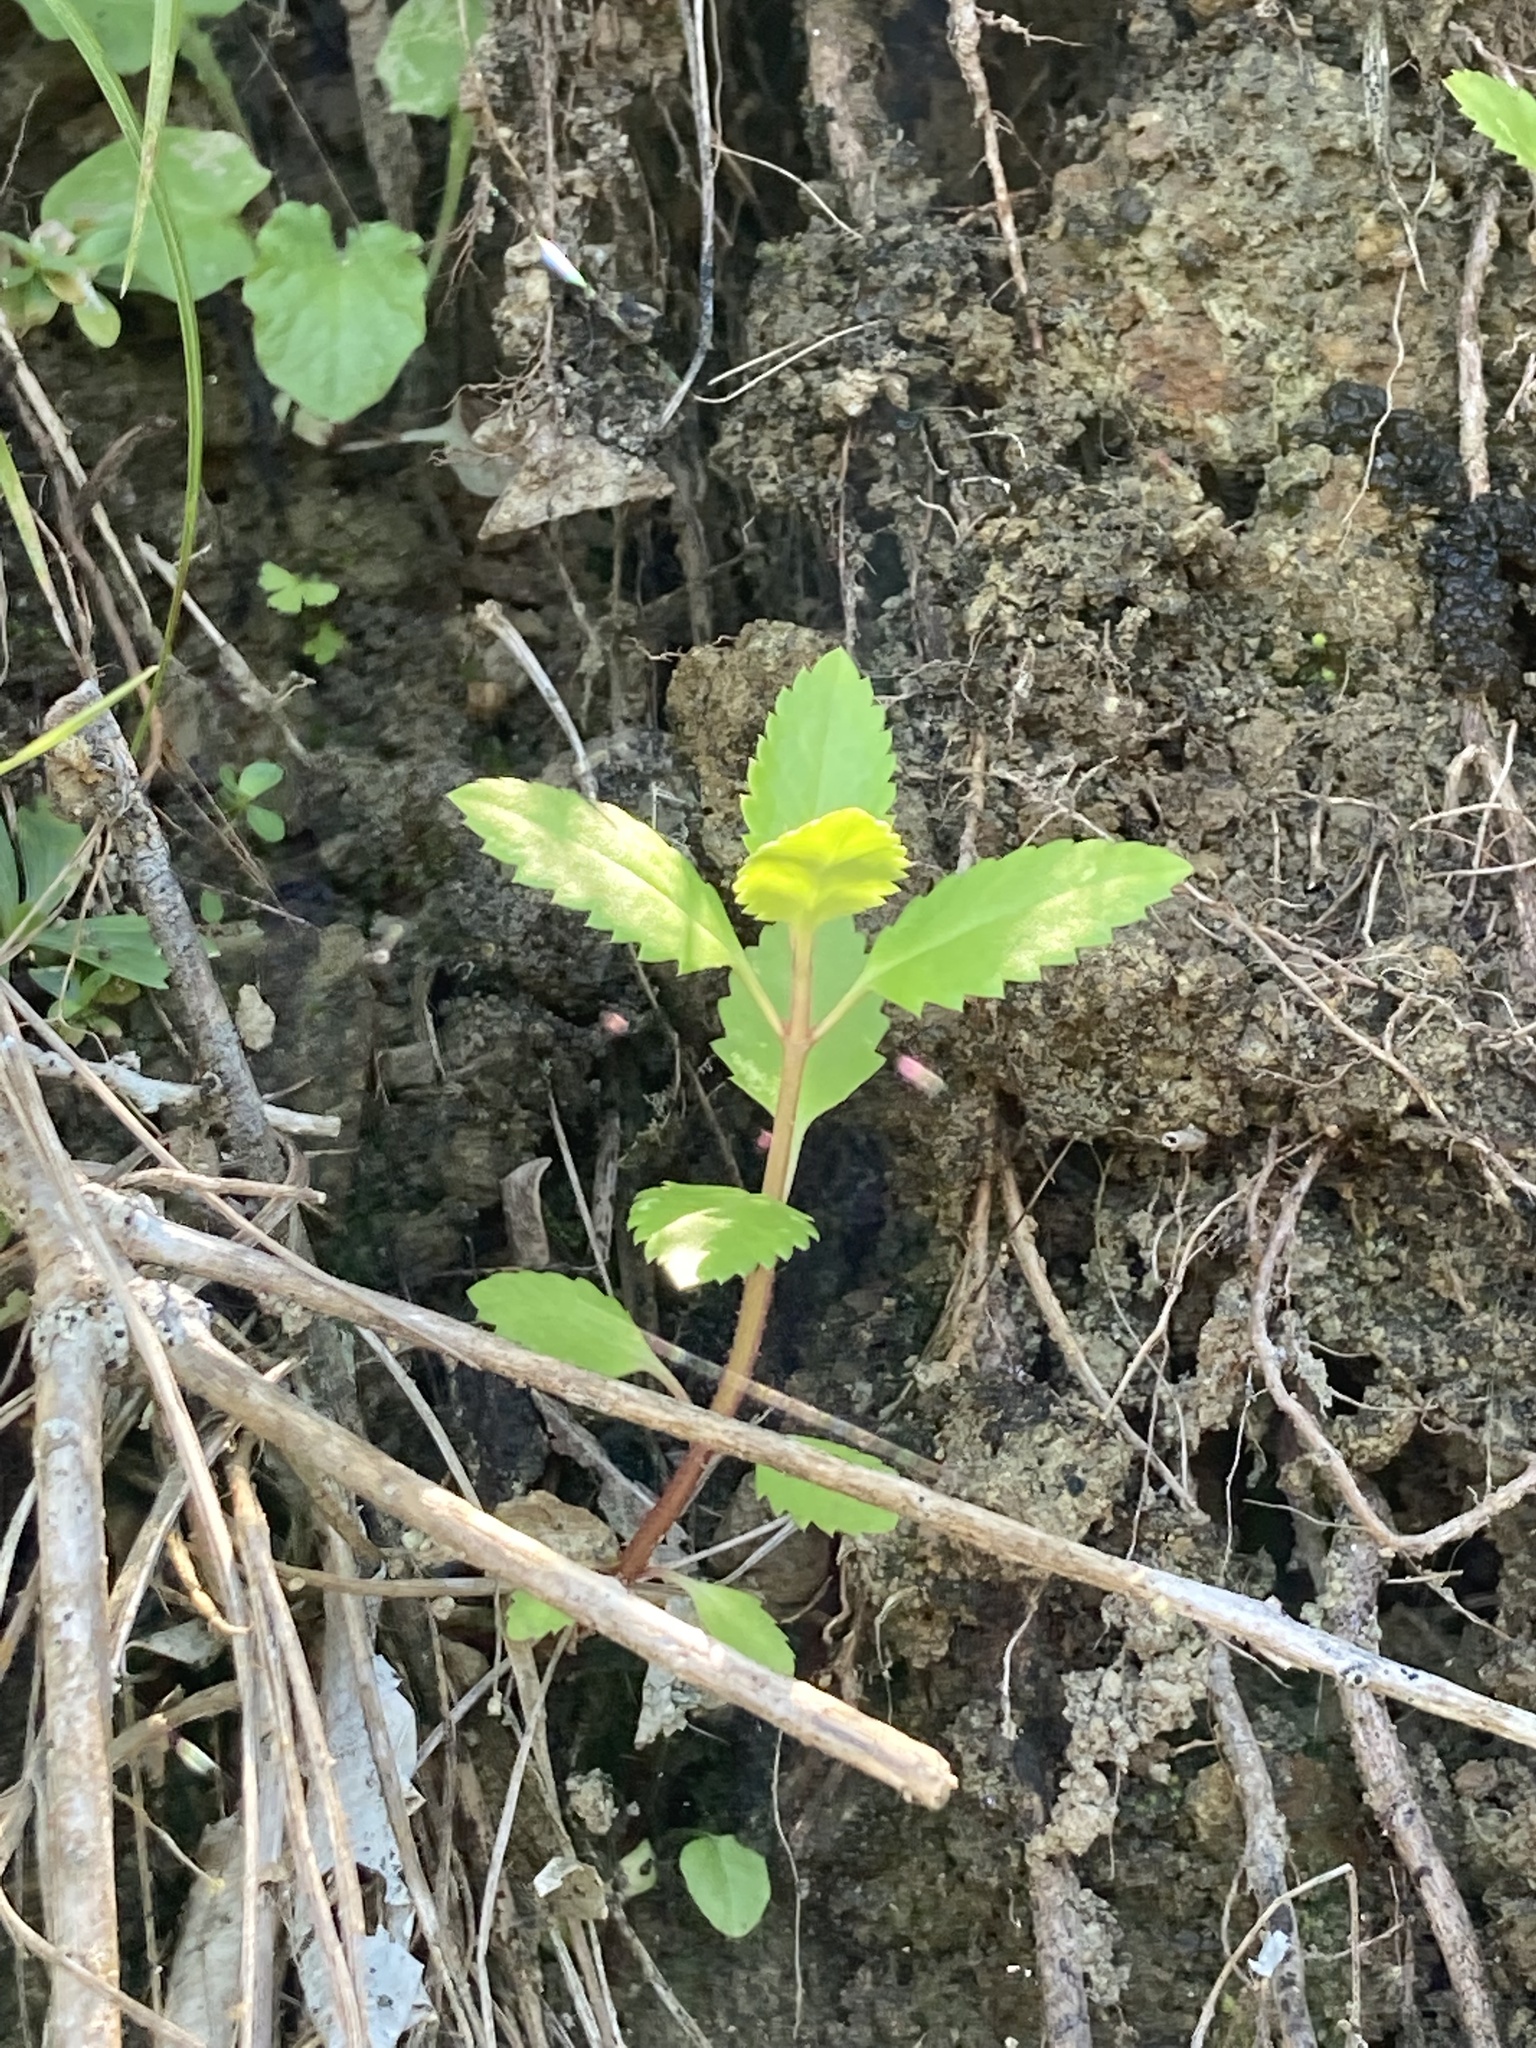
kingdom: Plantae
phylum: Tracheophyta
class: Magnoliopsida
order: Saxifragales
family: Haloragaceae
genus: Haloragis
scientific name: Haloragis erecta
